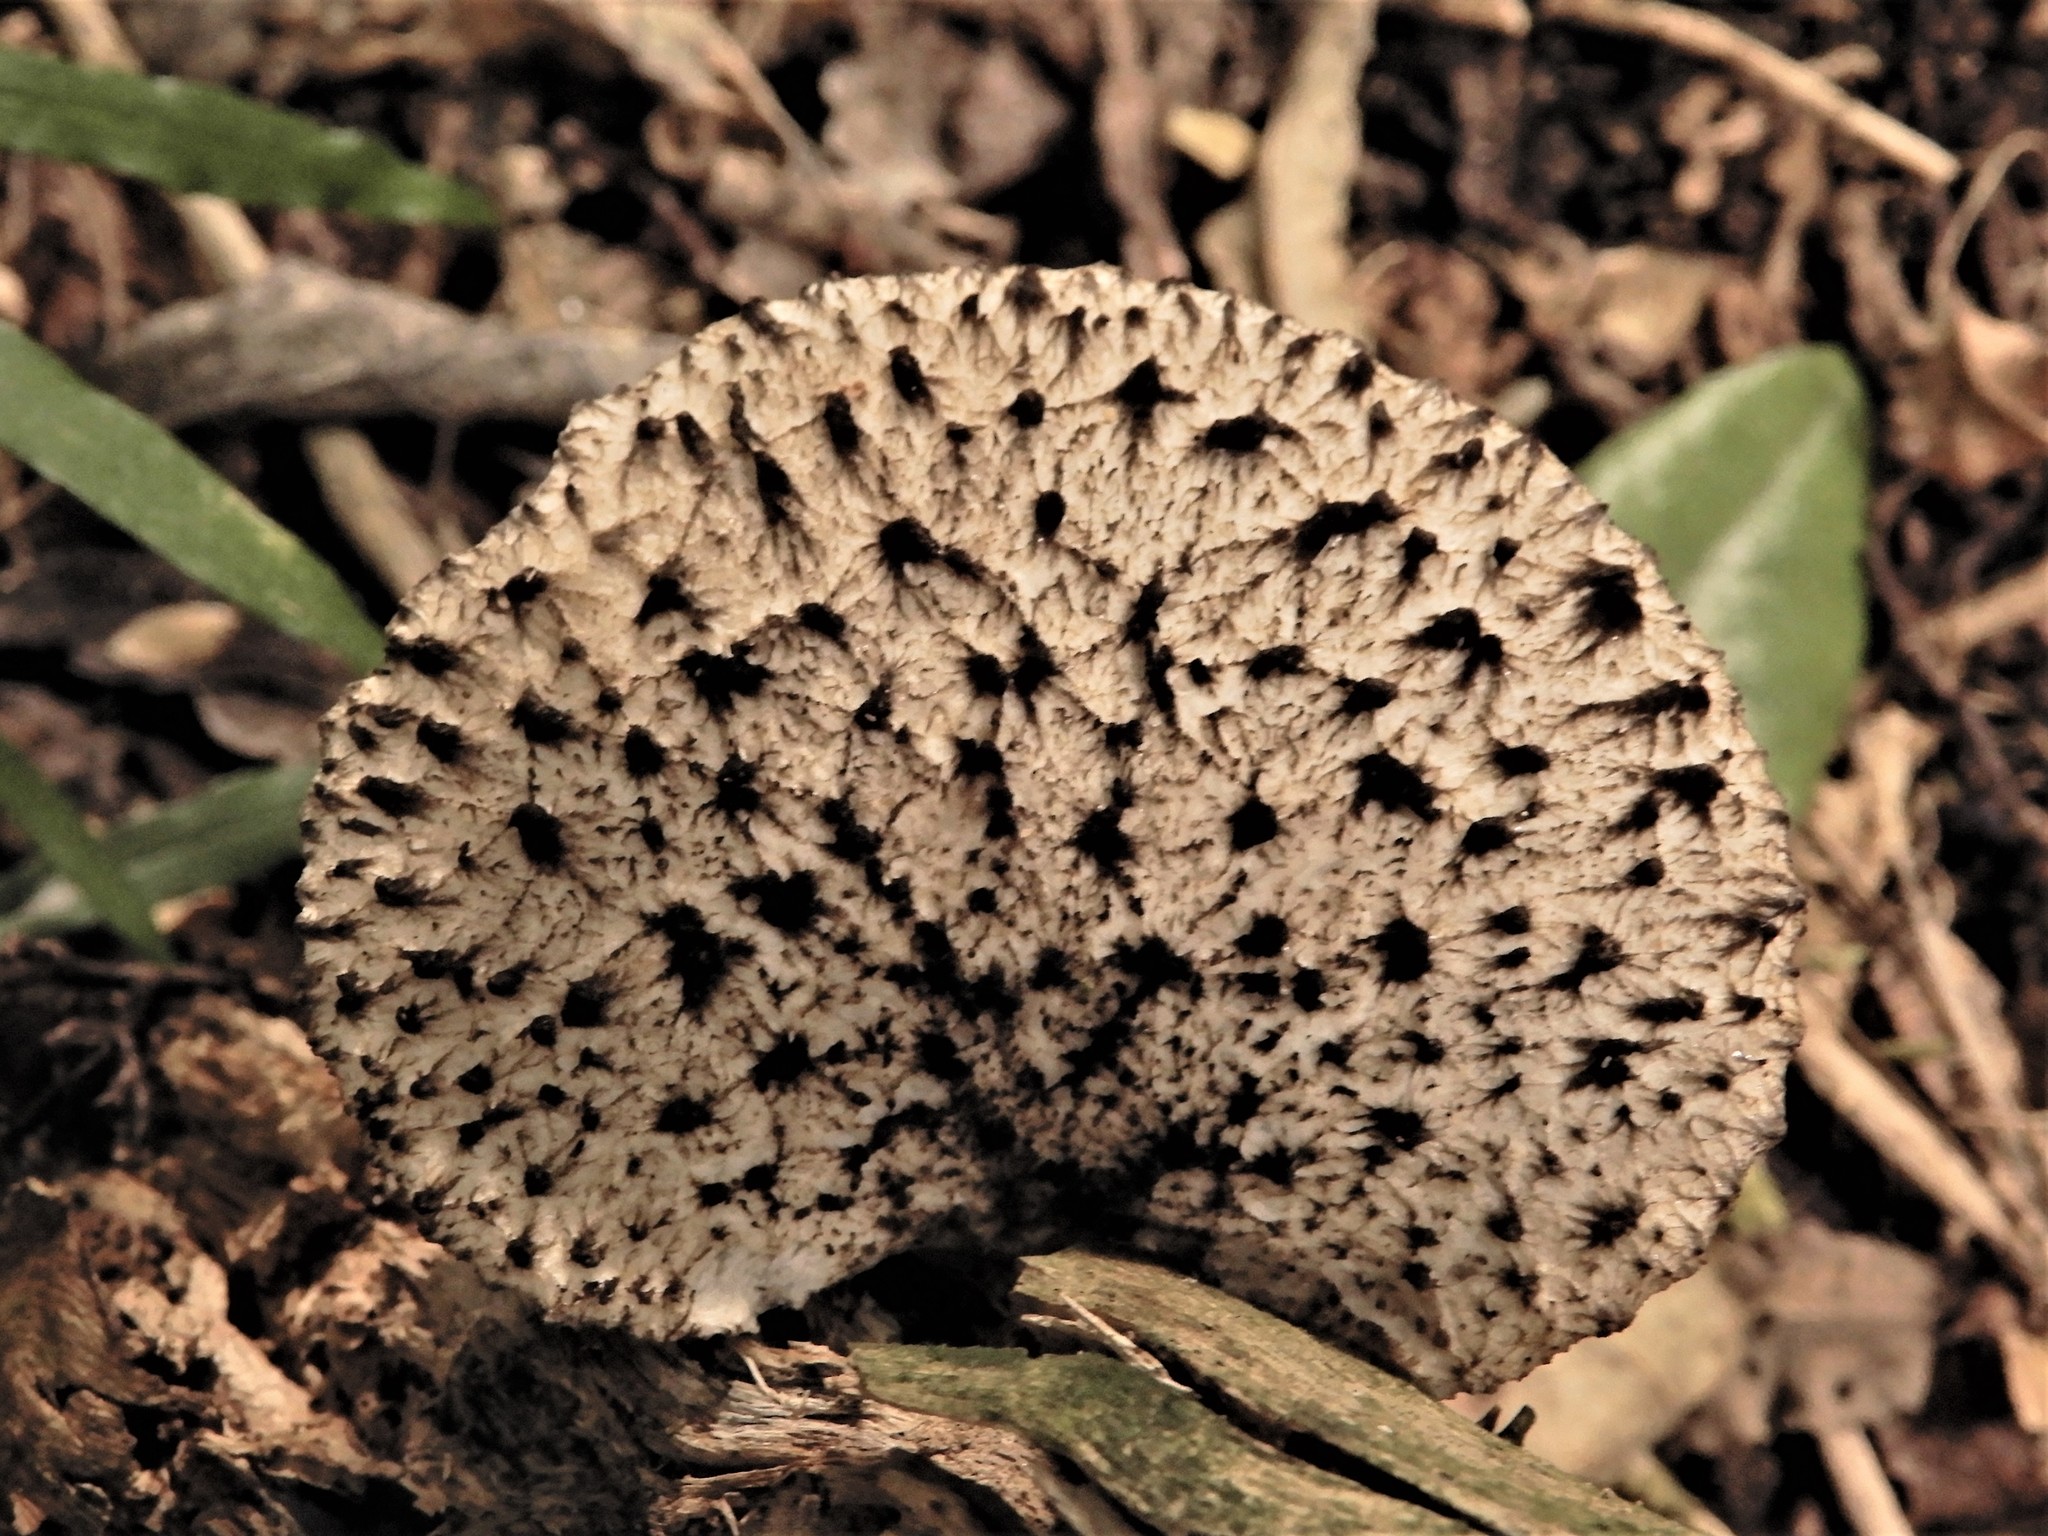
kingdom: Fungi
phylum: Basidiomycota
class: Agaricomycetes
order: Polyporales
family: Polyporaceae
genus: Bresadolia
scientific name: Bresadolia
